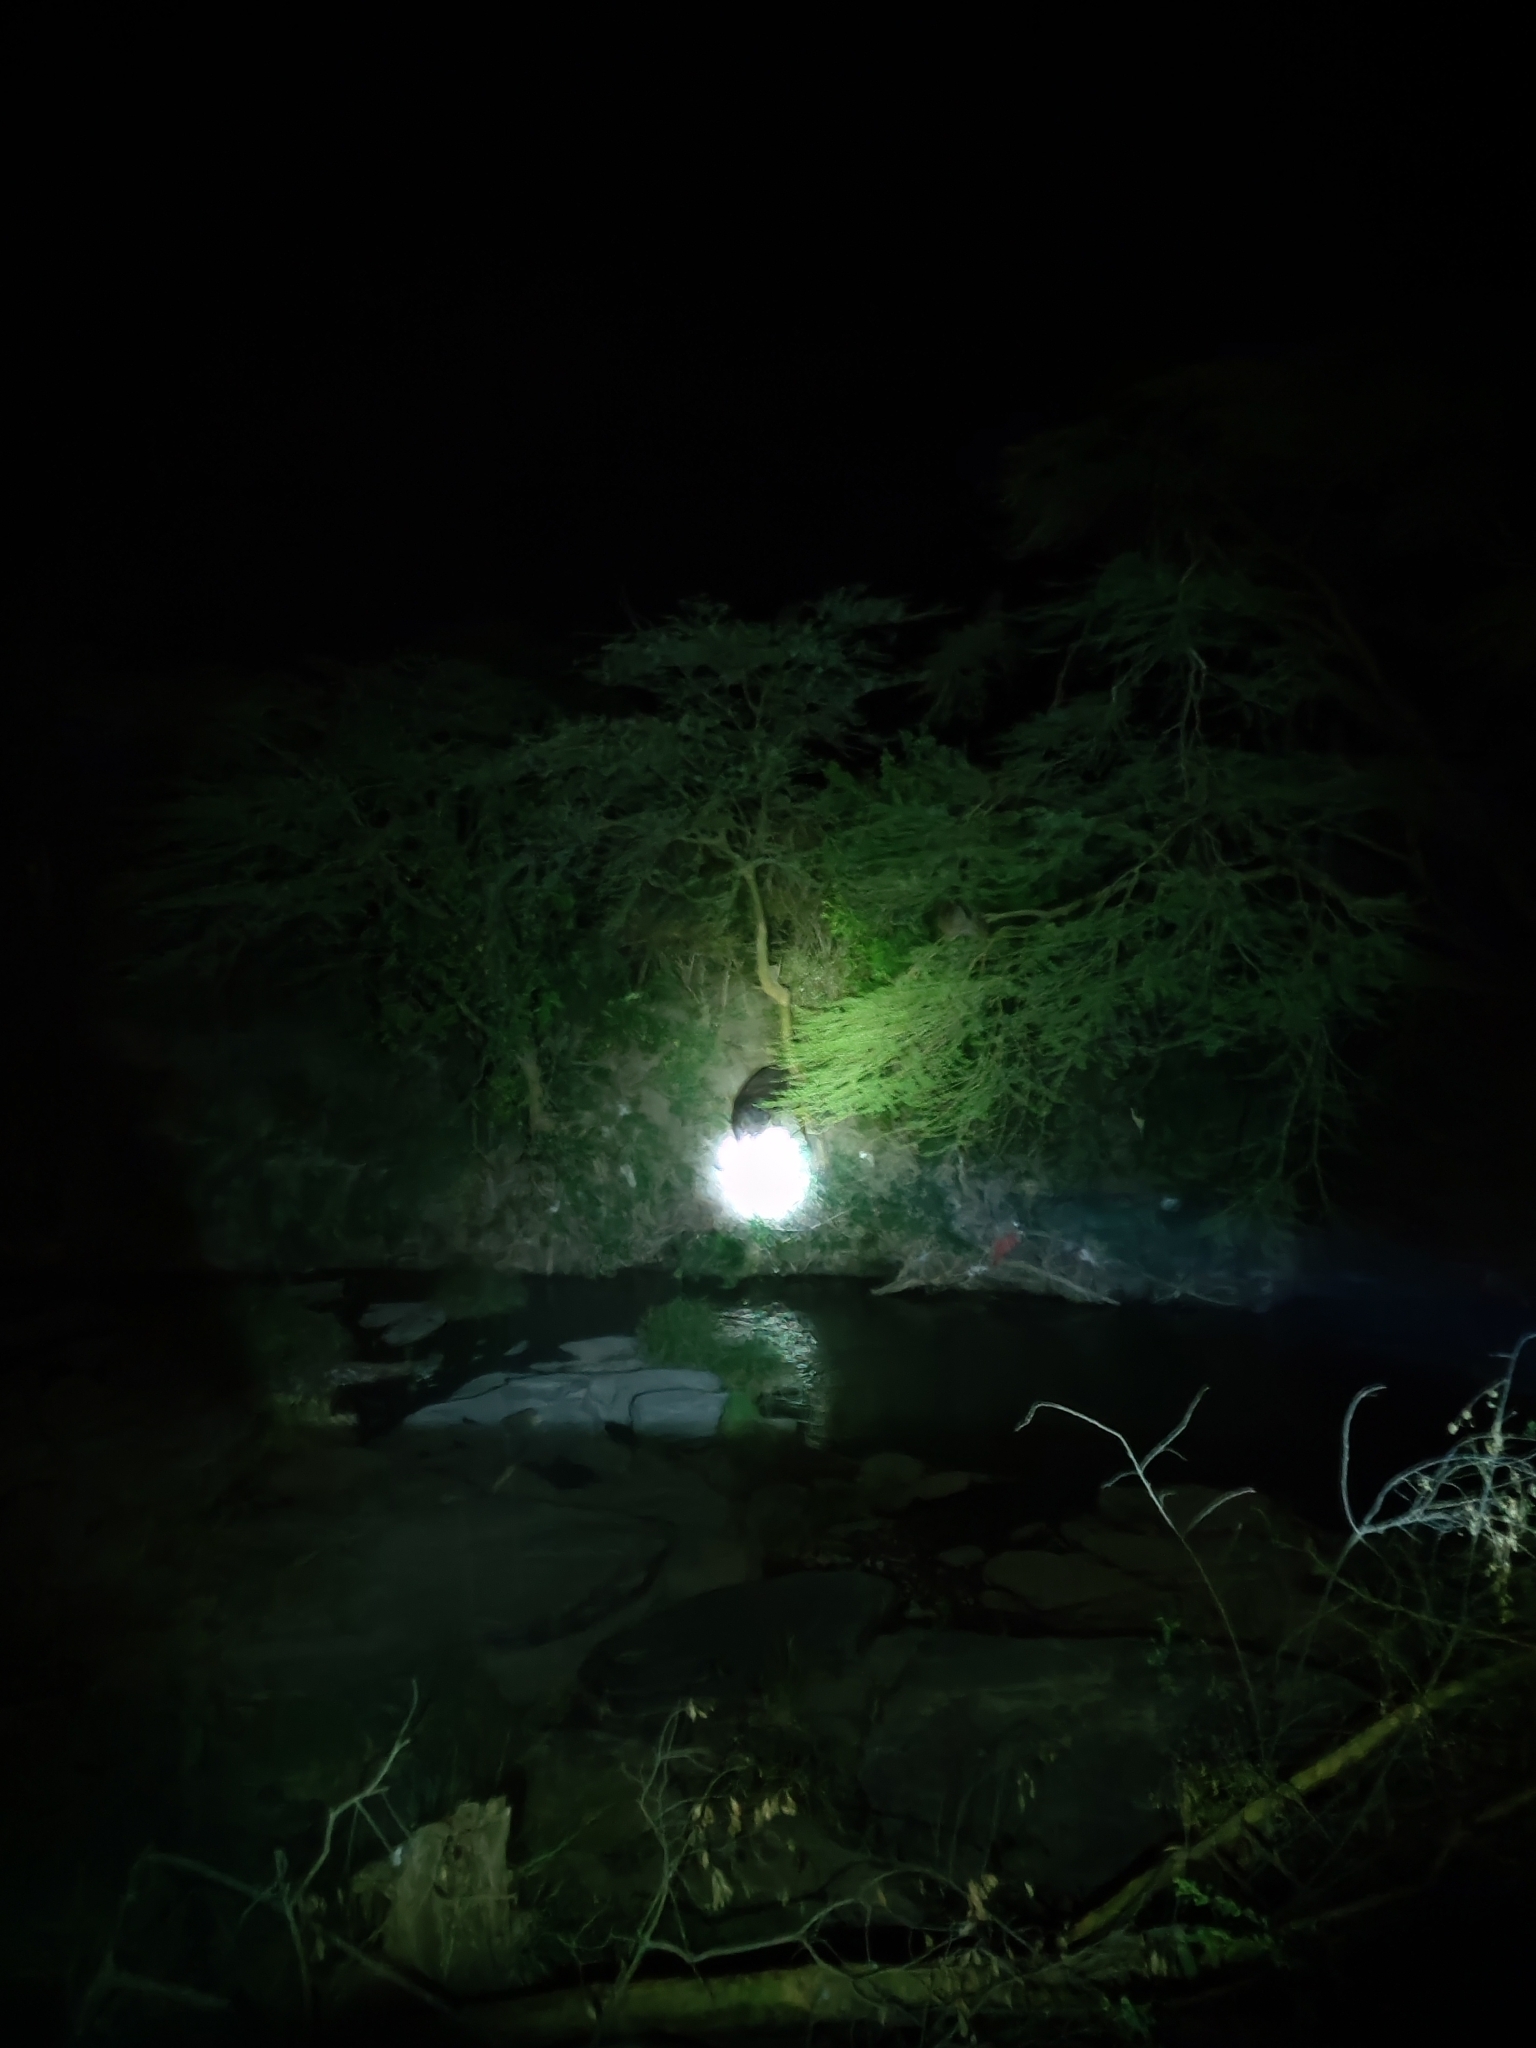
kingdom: Animalia
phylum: Chordata
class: Mammalia
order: Artiodactyla
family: Hippopotamidae
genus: Hippopotamus
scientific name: Hippopotamus amphibius
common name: Common hippopotamus
